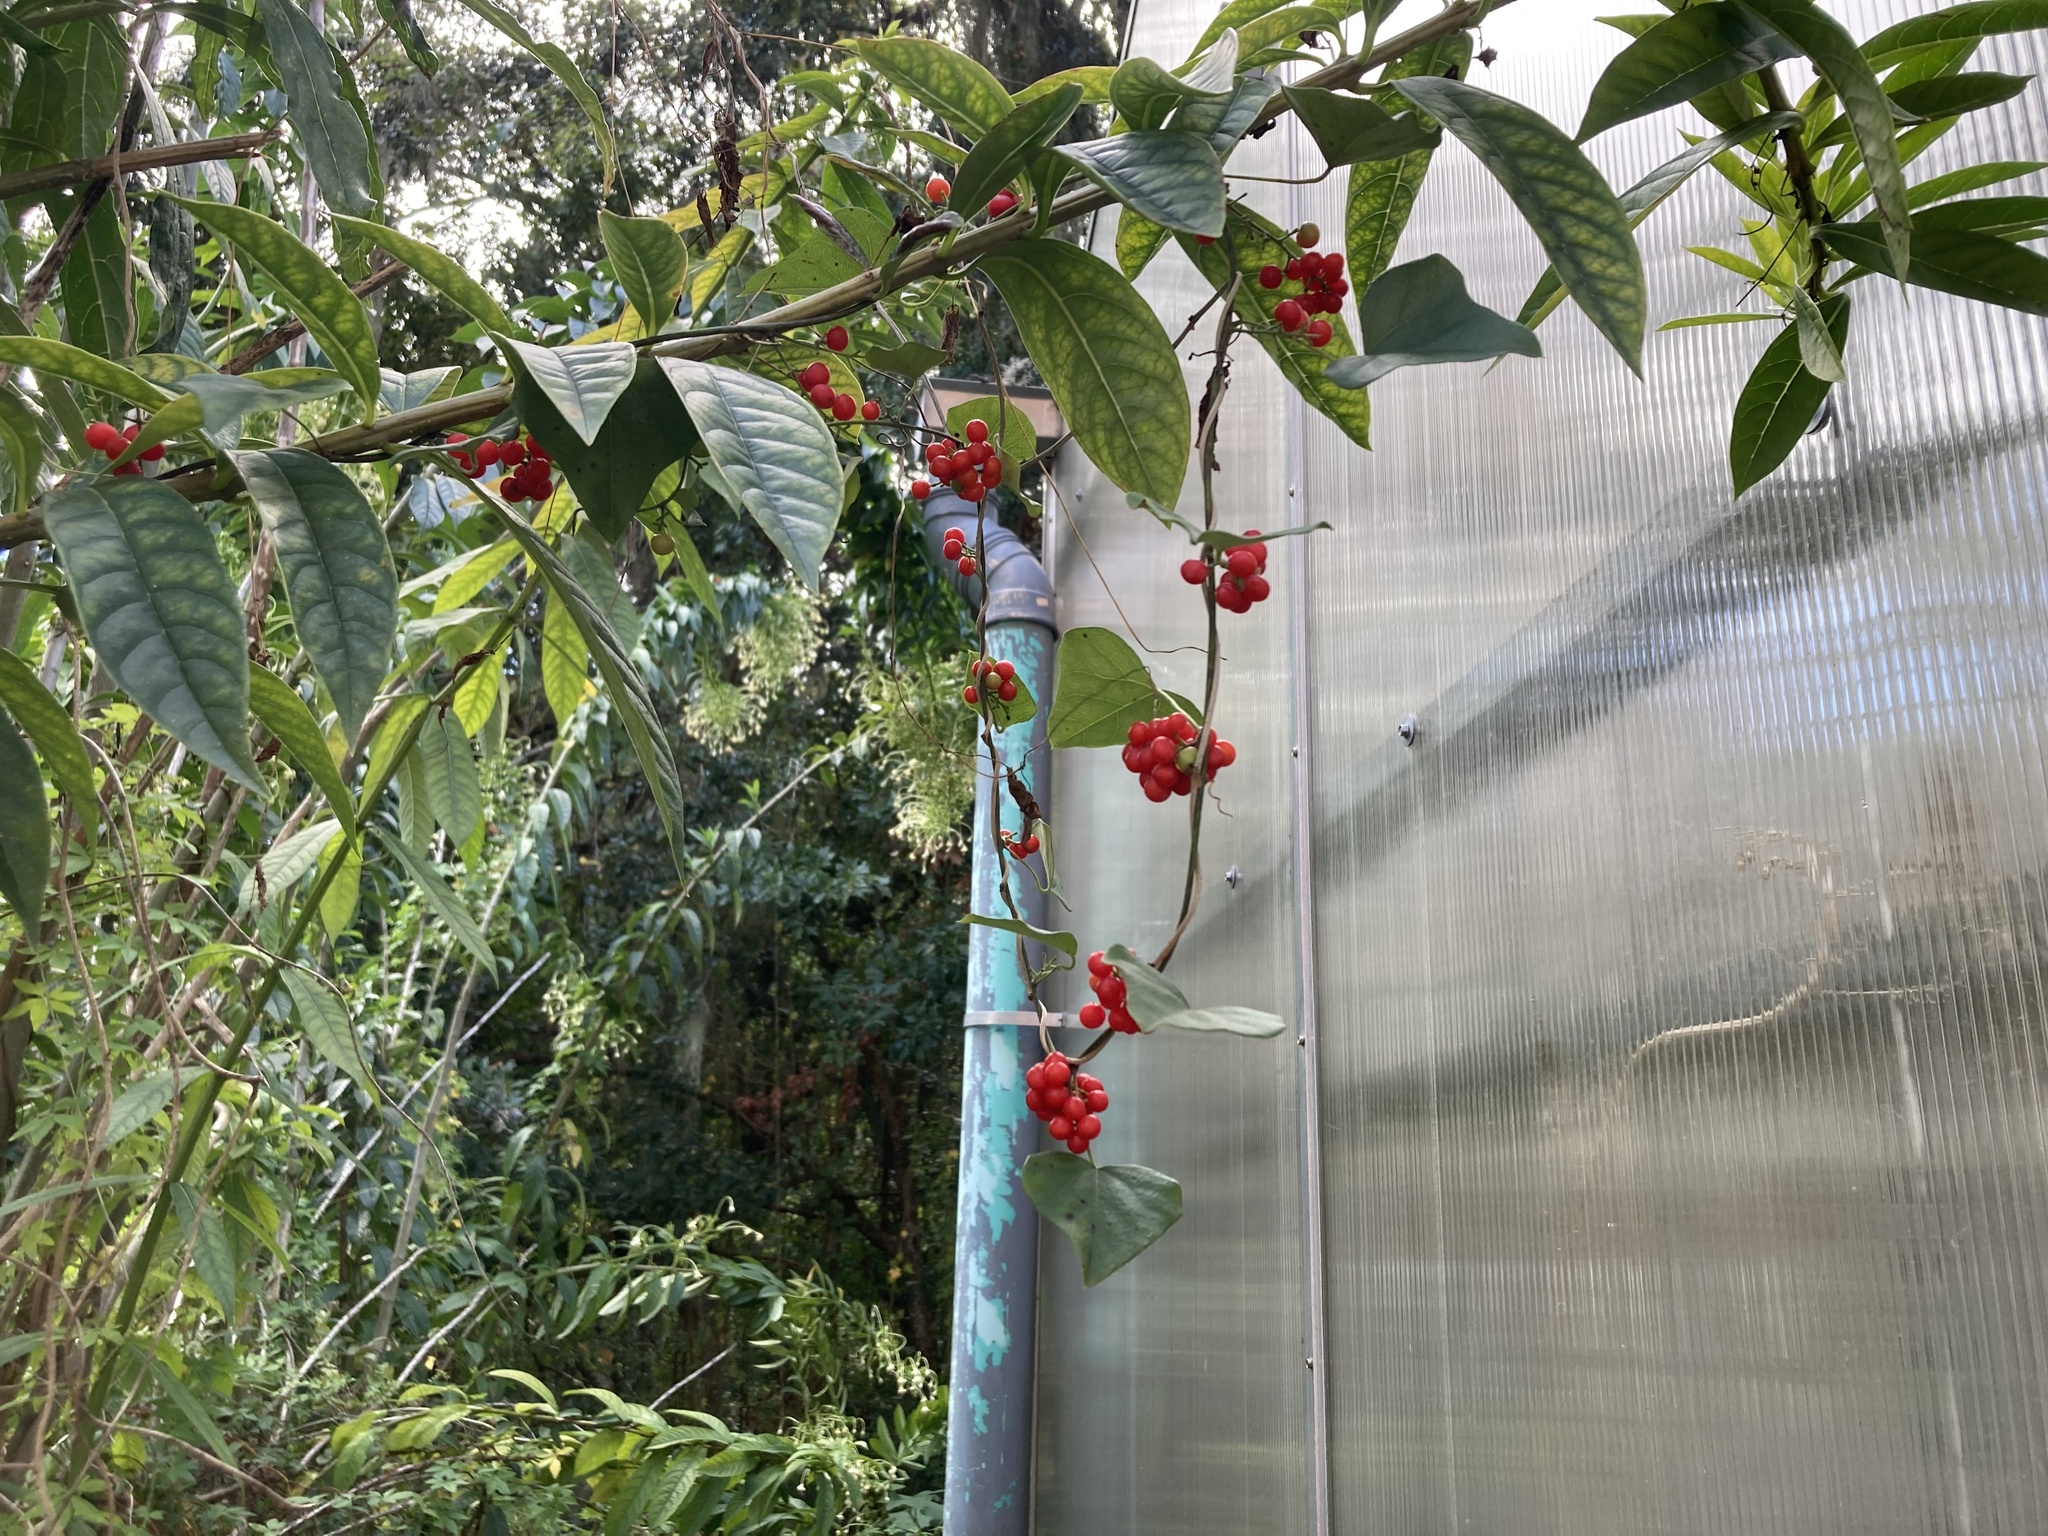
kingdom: Plantae
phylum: Tracheophyta
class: Magnoliopsida
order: Ranunculales
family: Menispermaceae
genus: Cocculus
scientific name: Cocculus carolinus
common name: Carolina moonseed
